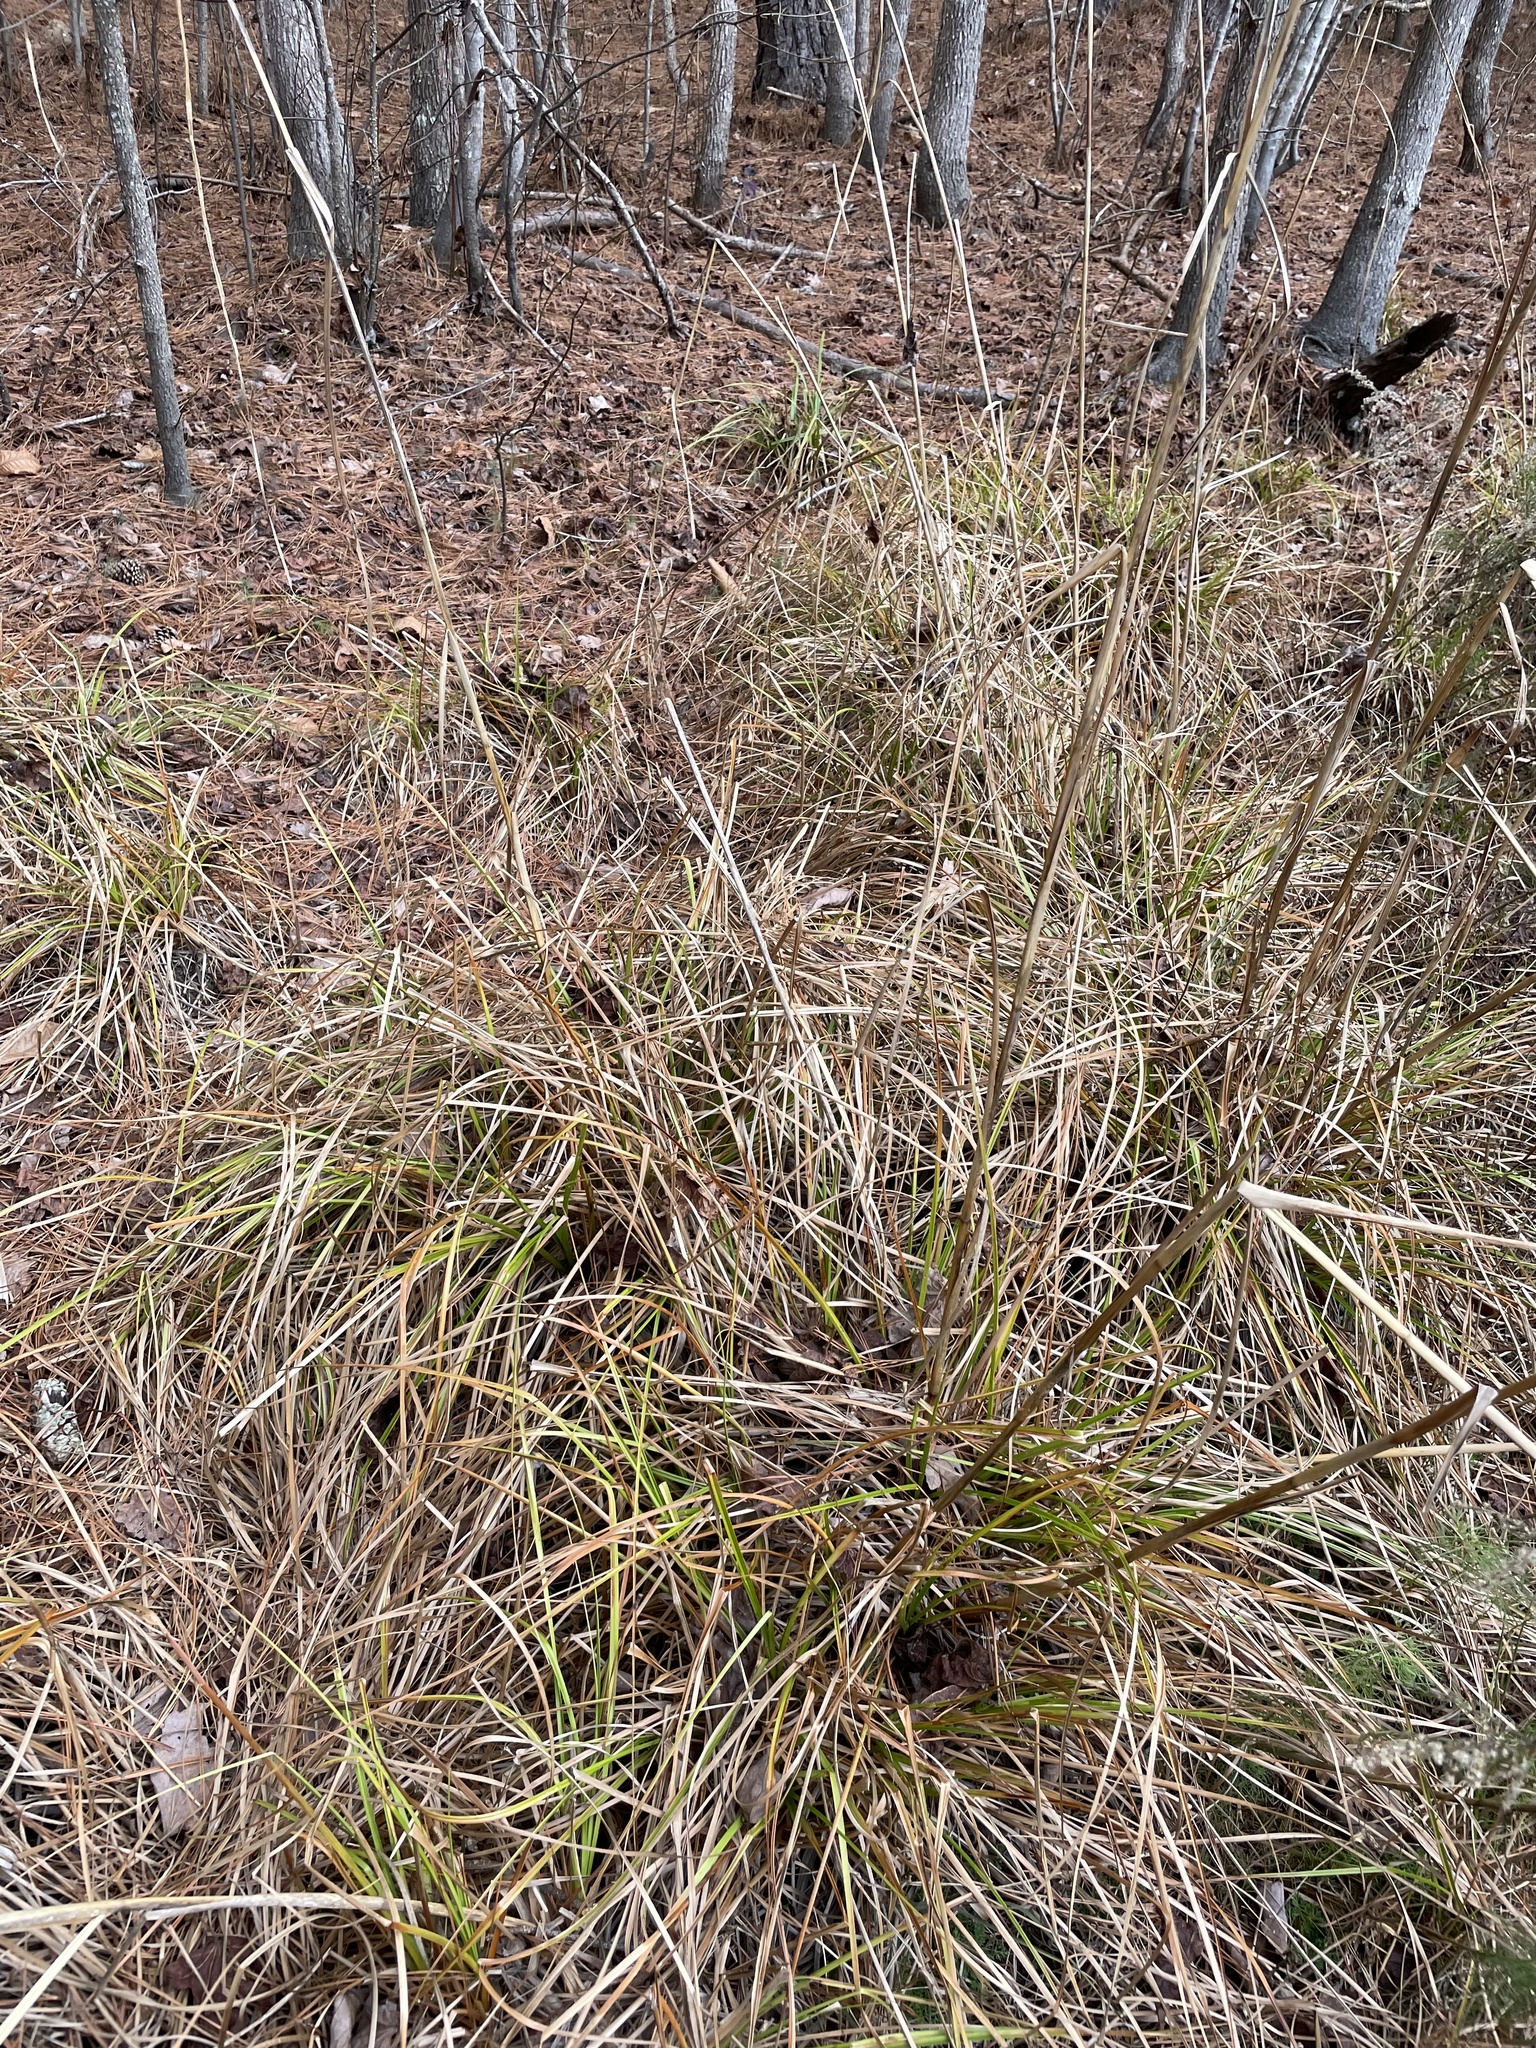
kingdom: Plantae
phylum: Tracheophyta
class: Liliopsida
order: Poales
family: Cyperaceae
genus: Scirpus
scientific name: Scirpus cyperinus
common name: Black-sheathed bulrush
